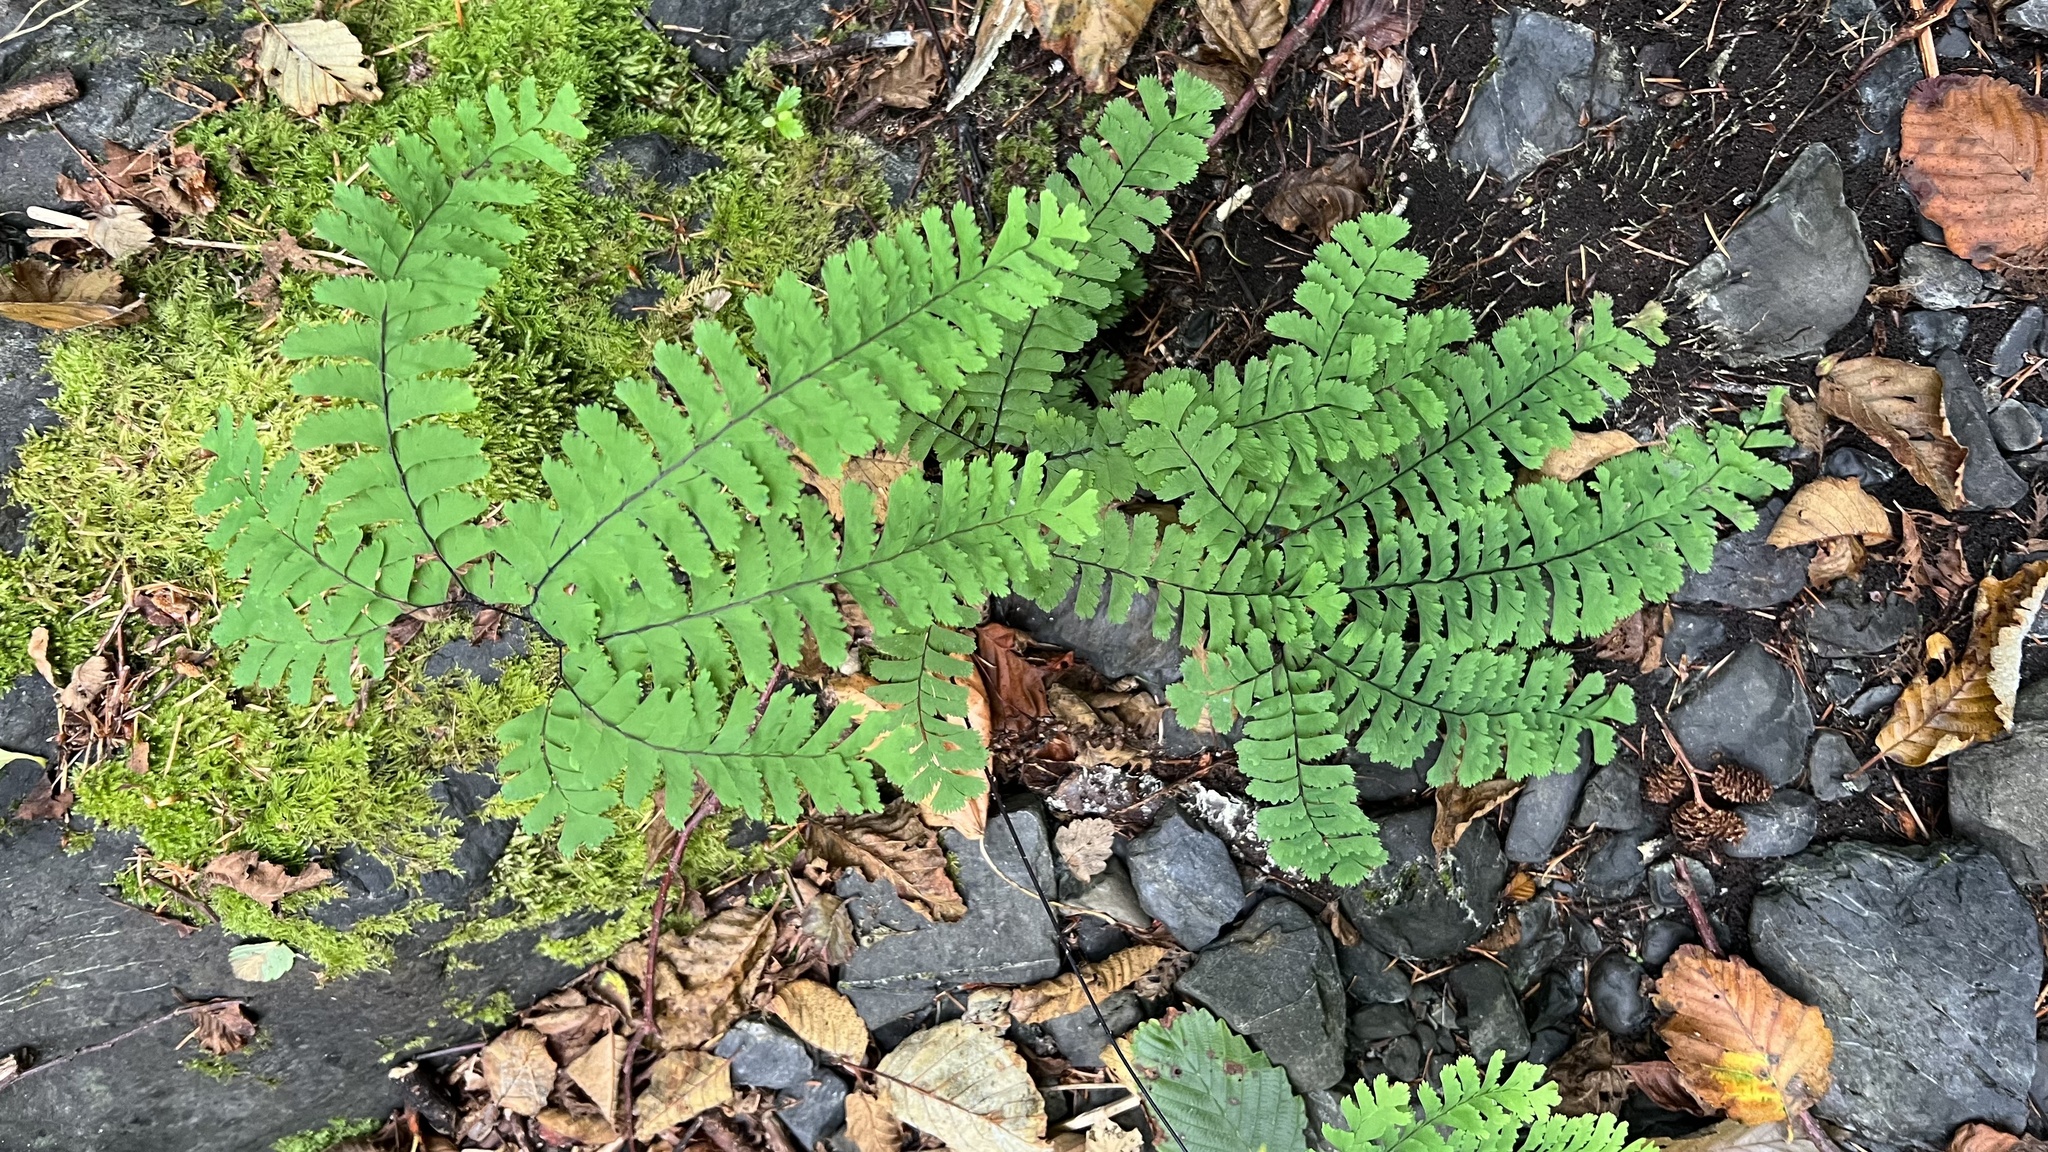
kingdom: Plantae
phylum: Tracheophyta
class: Polypodiopsida
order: Polypodiales
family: Pteridaceae
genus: Adiantum
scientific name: Adiantum aleuticum
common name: Aleutian maidenhair fern
